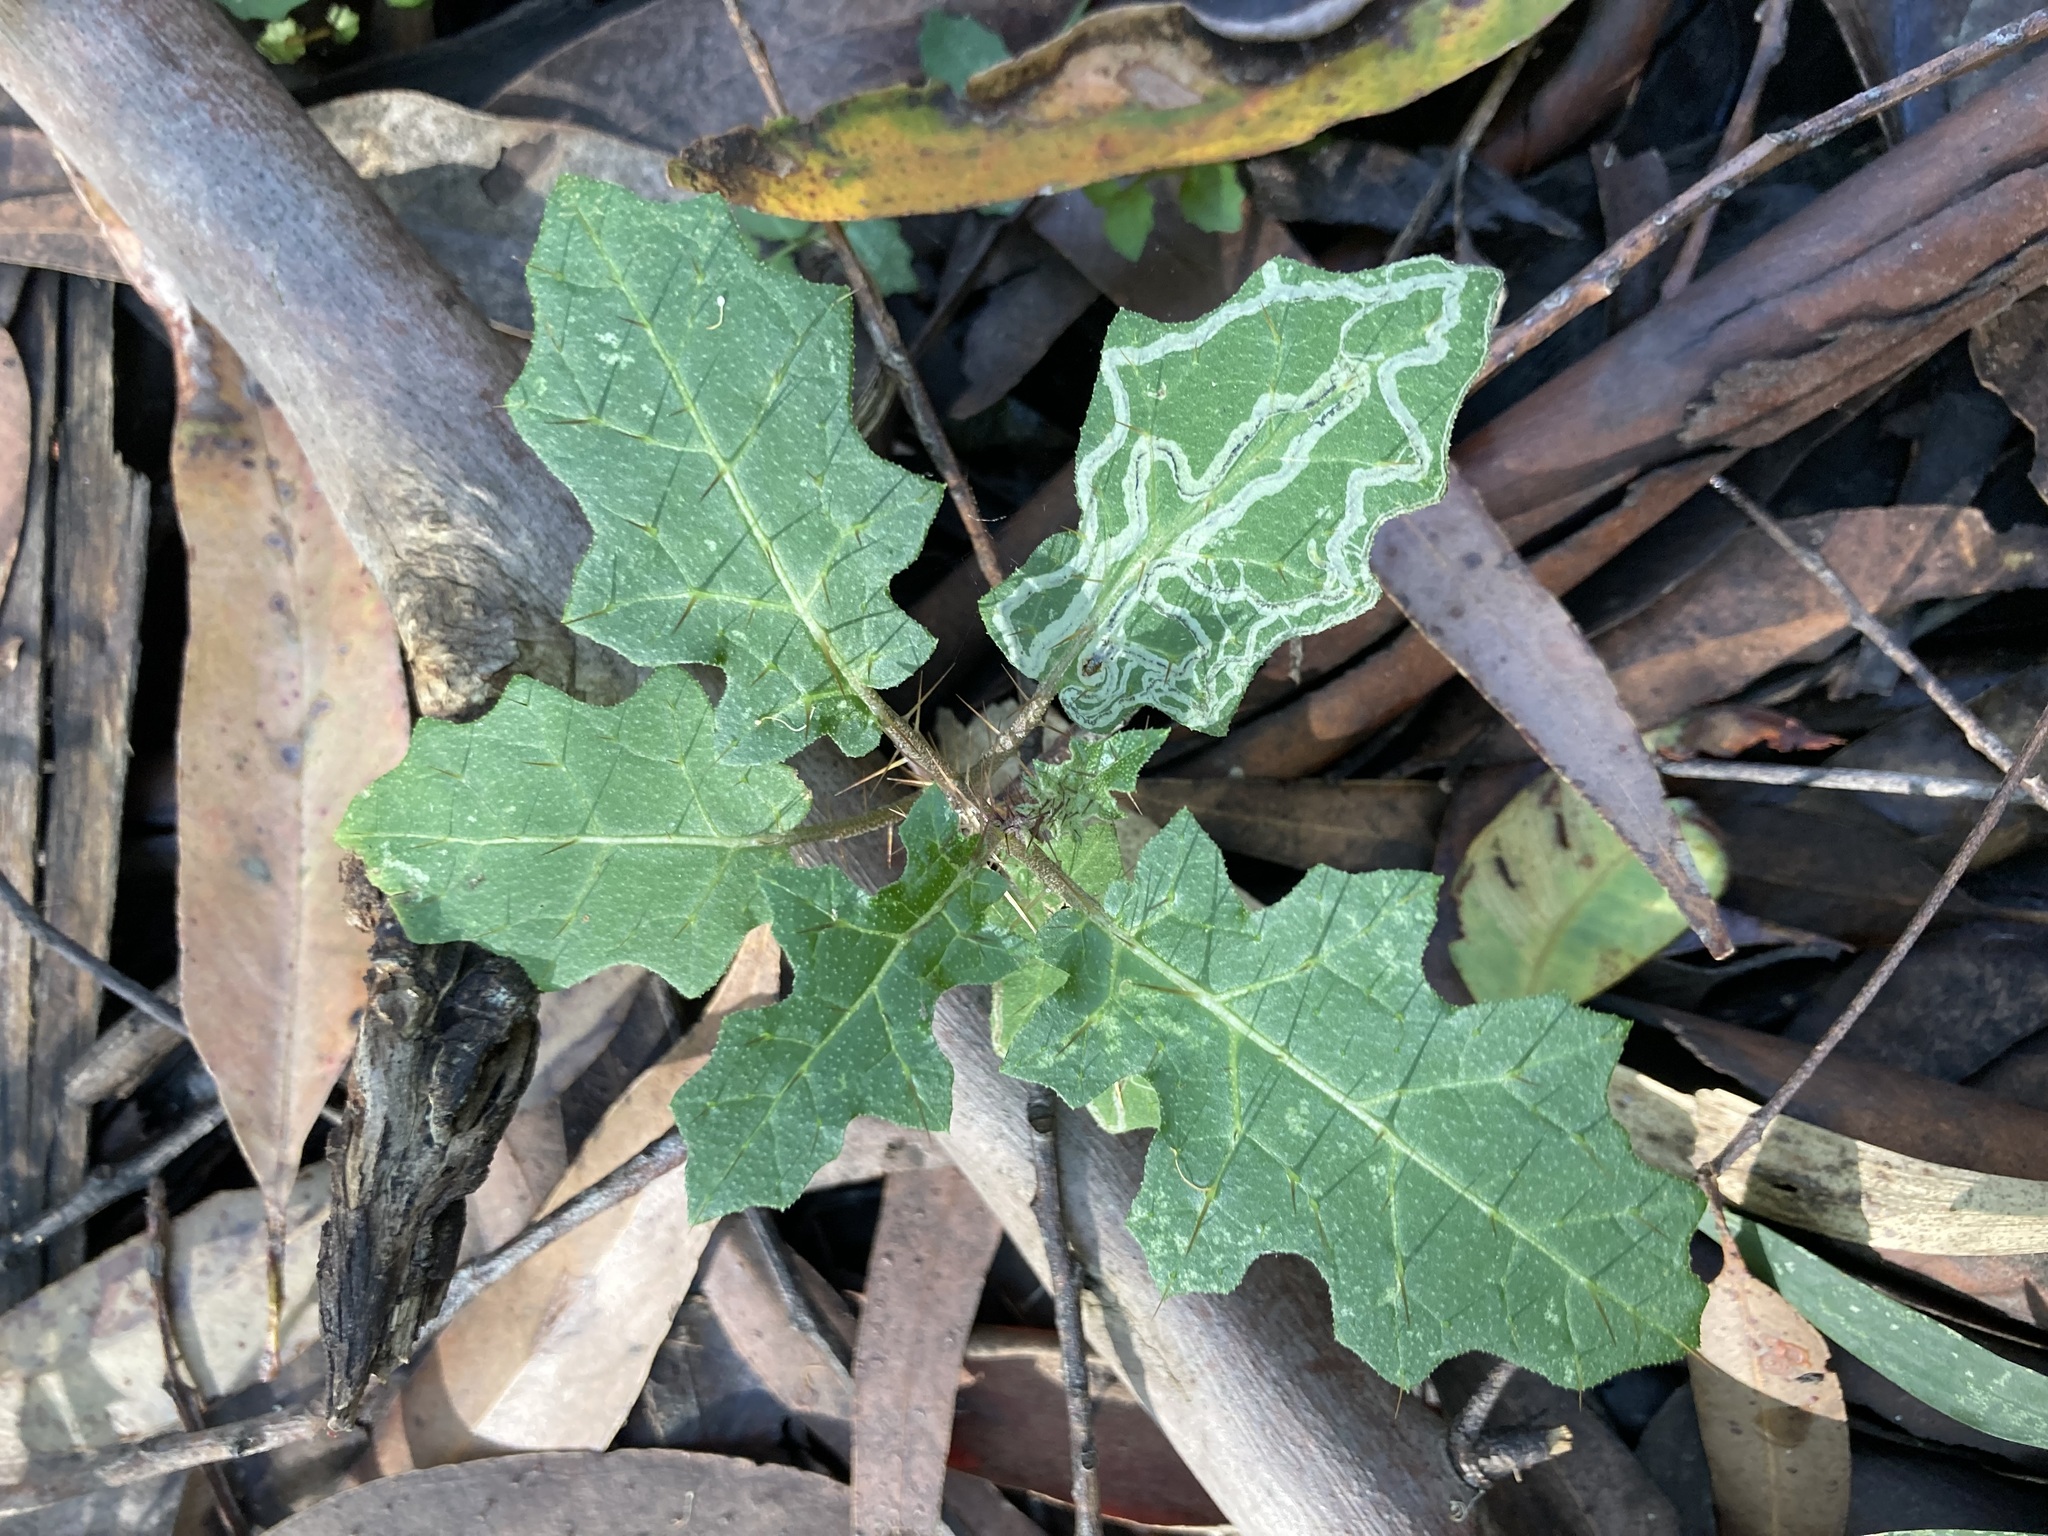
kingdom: Plantae
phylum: Tracheophyta
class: Magnoliopsida
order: Solanales
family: Solanaceae
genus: Solanum
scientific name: Solanum prinophyllum
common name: Forest nightshade
